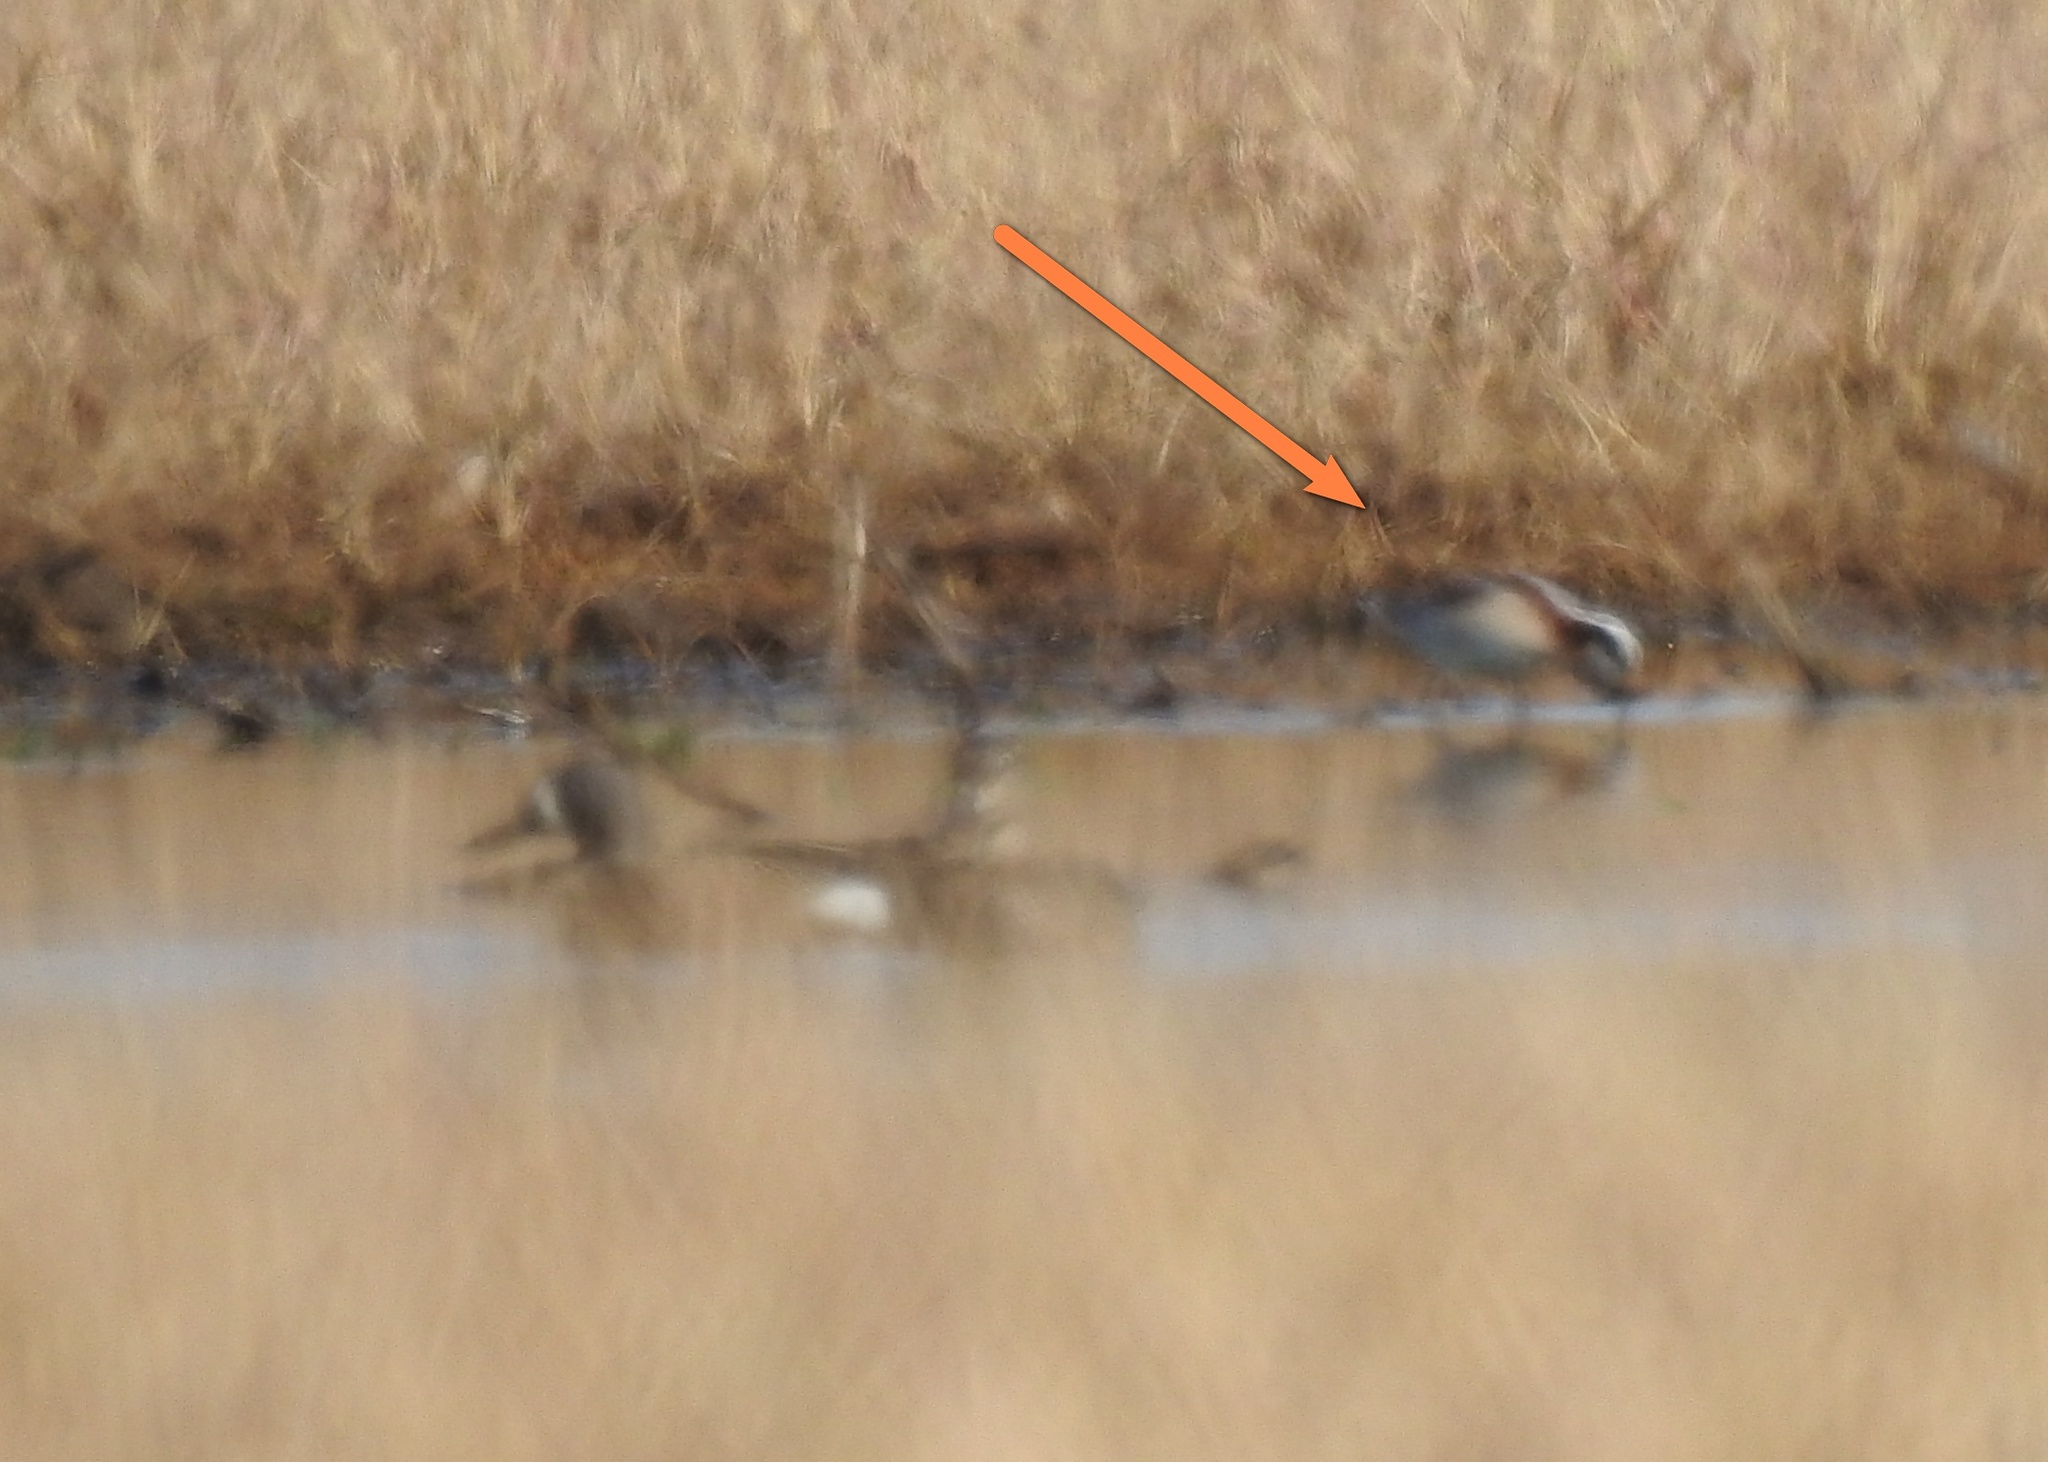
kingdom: Animalia
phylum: Chordata
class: Aves
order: Charadriiformes
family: Scolopacidae
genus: Phalaropus
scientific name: Phalaropus tricolor
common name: Wilson's phalarope
